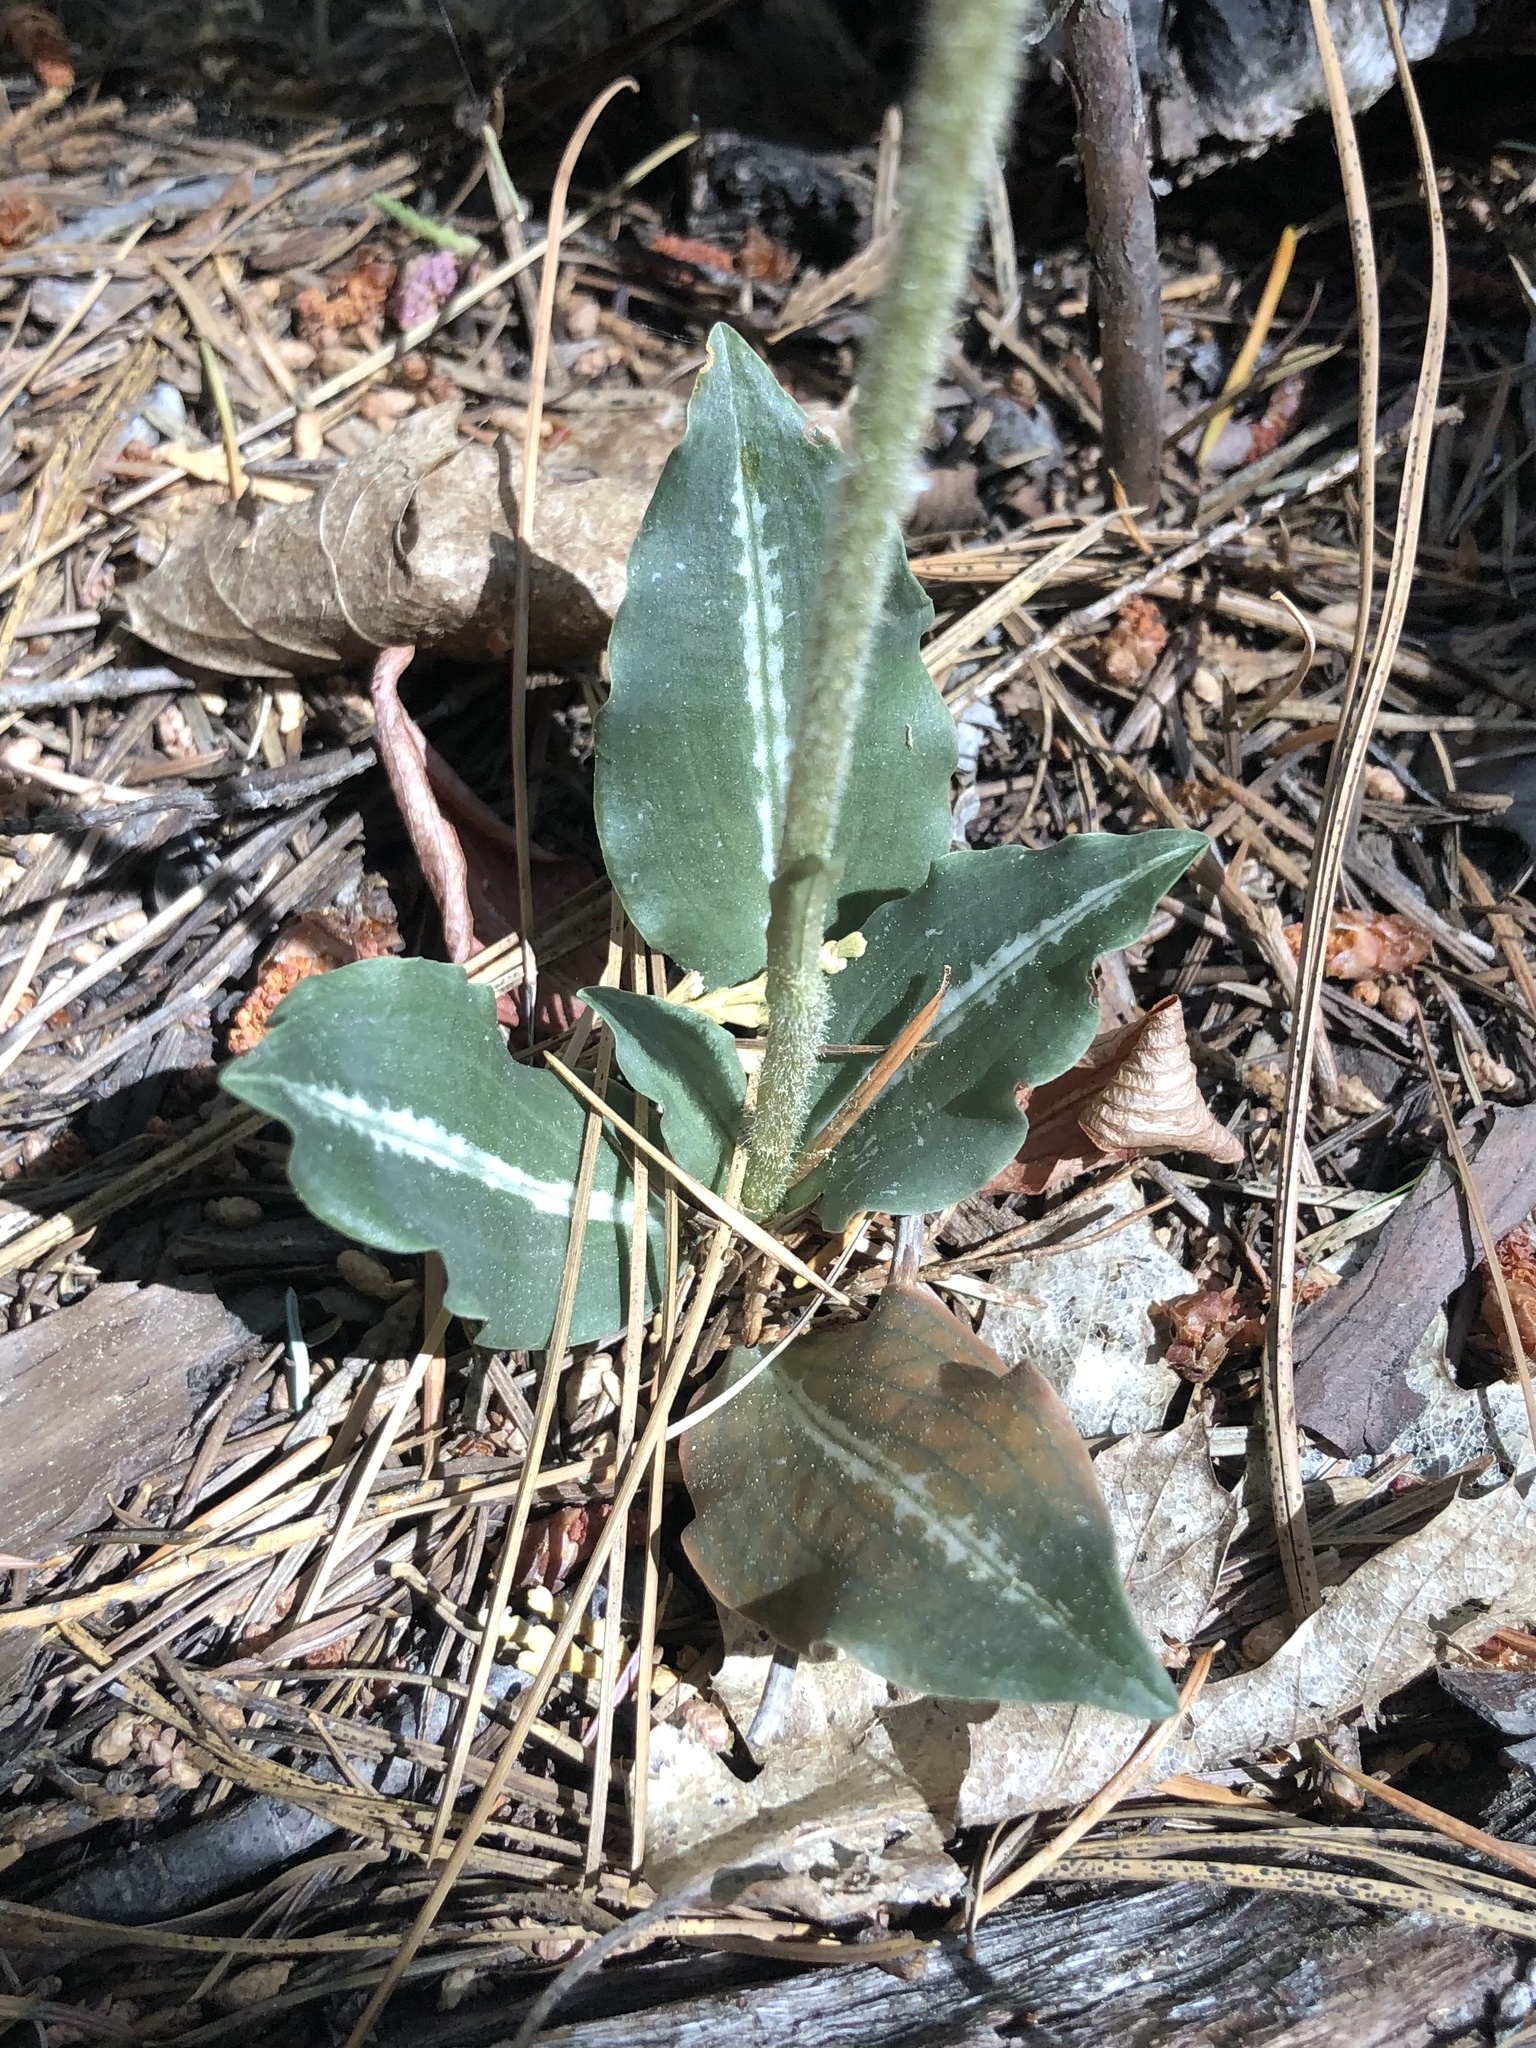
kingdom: Plantae
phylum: Tracheophyta
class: Liliopsida
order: Asparagales
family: Orchidaceae
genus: Goodyera
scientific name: Goodyera oblongifolia
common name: Giant rattlesnake-plantain
